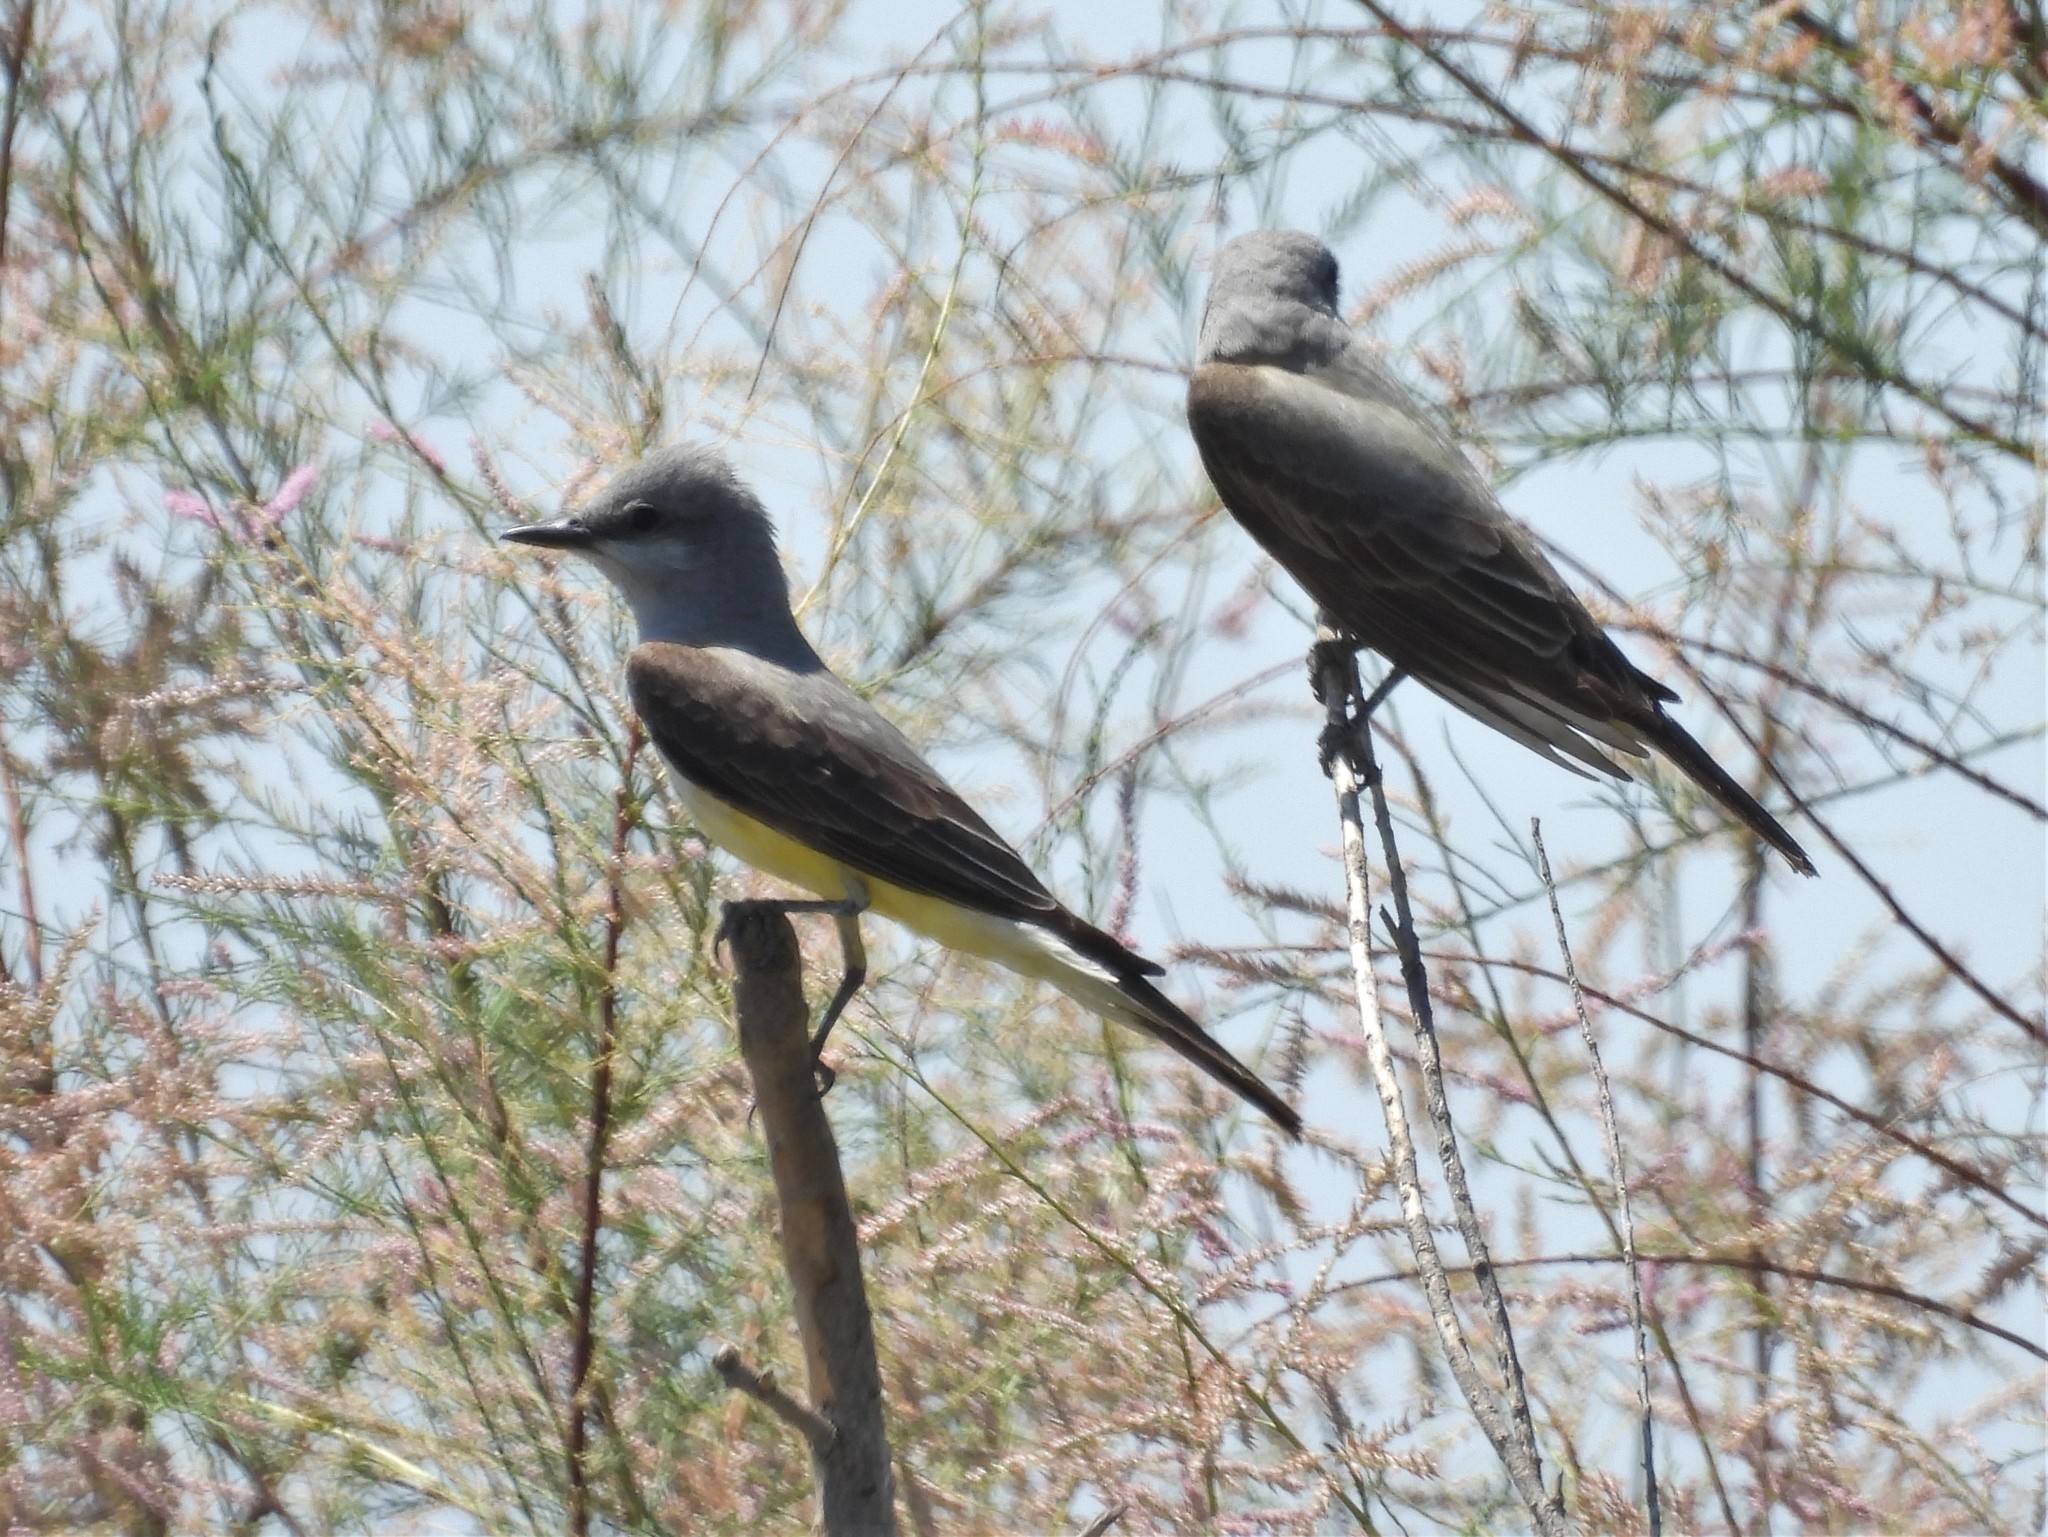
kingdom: Animalia
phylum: Chordata
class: Aves
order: Passeriformes
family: Tyrannidae
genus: Tyrannus
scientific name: Tyrannus verticalis
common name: Western kingbird
